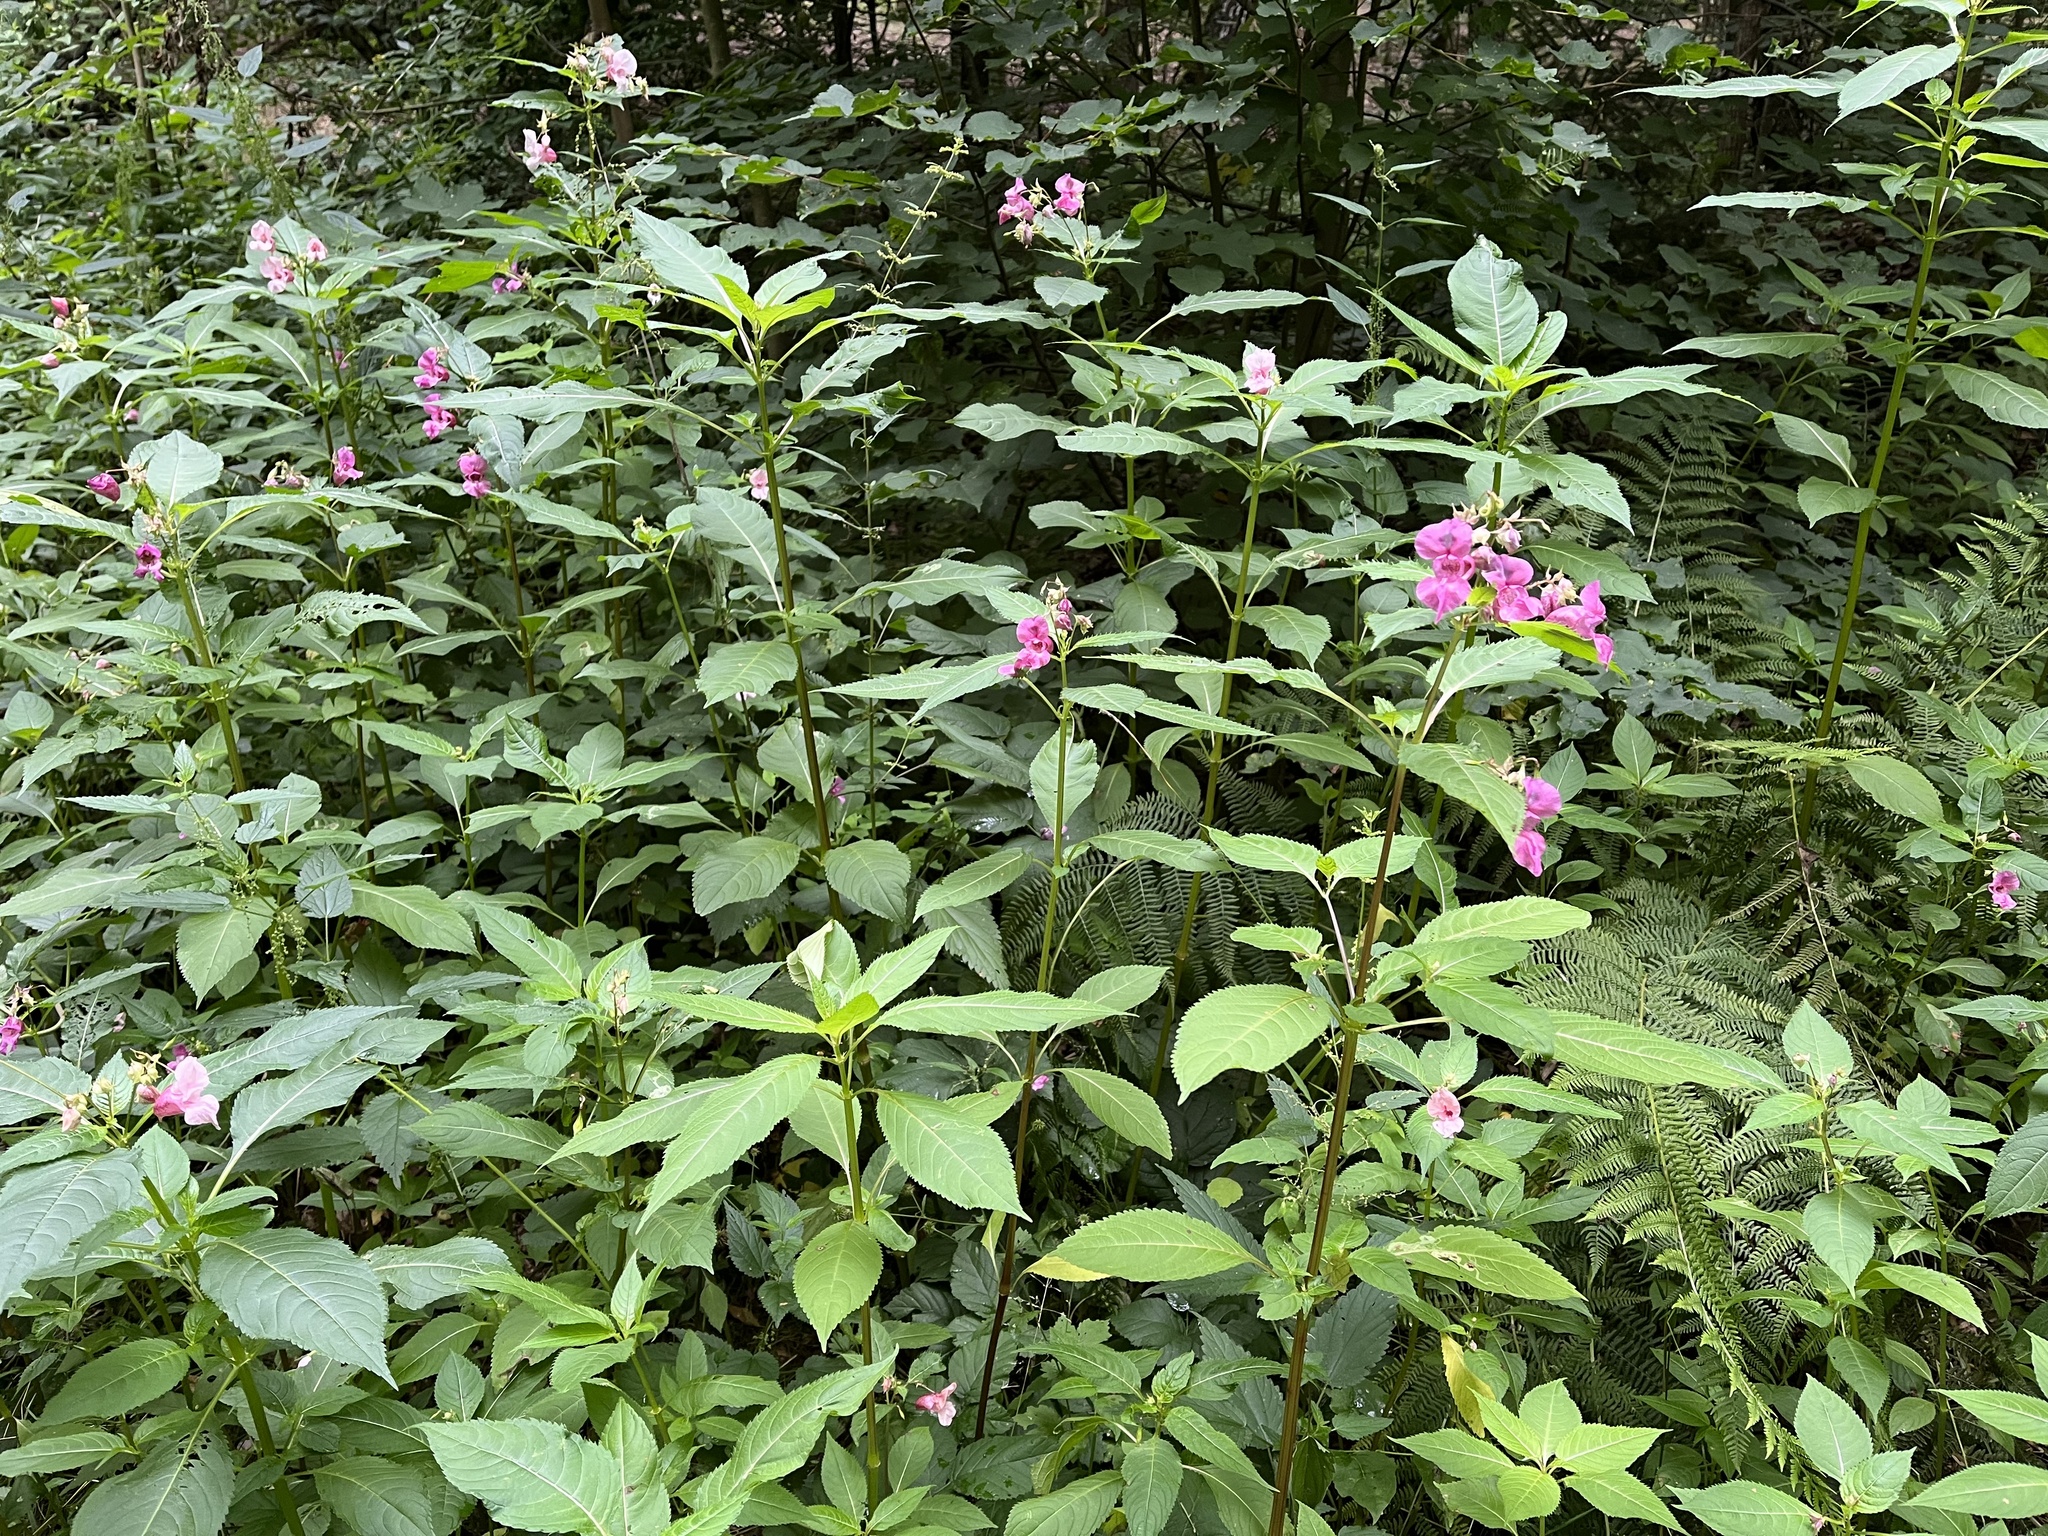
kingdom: Plantae
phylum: Tracheophyta
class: Magnoliopsida
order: Ericales
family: Balsaminaceae
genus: Impatiens
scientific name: Impatiens glandulifera
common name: Himalayan balsam
